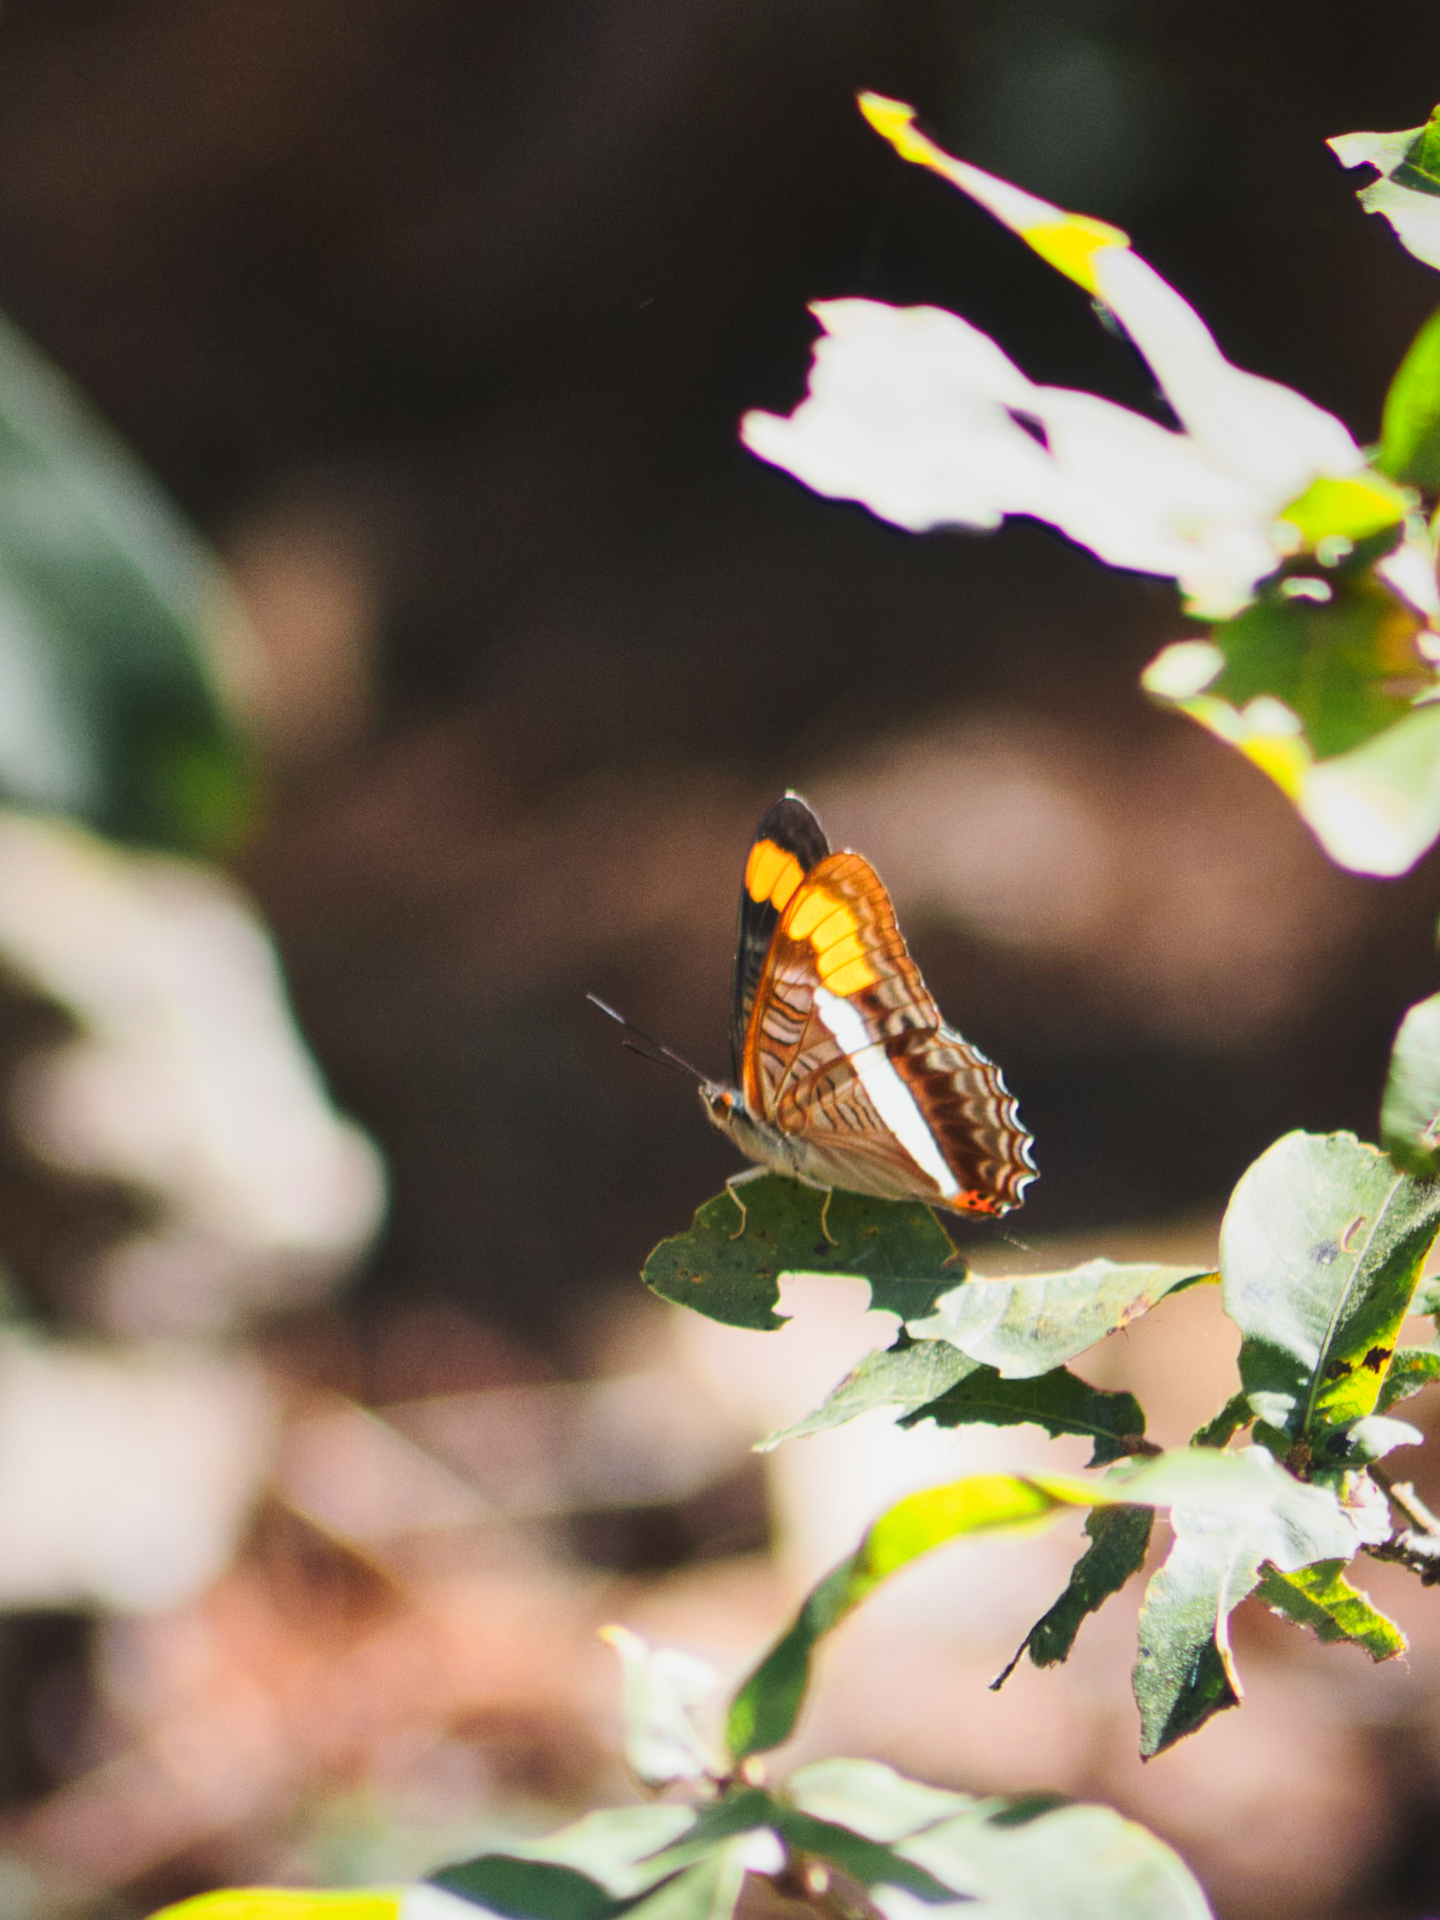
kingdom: Animalia
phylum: Arthropoda
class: Insecta
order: Lepidoptera
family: Nymphalidae
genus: Limenitis
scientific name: Limenitis pithys
